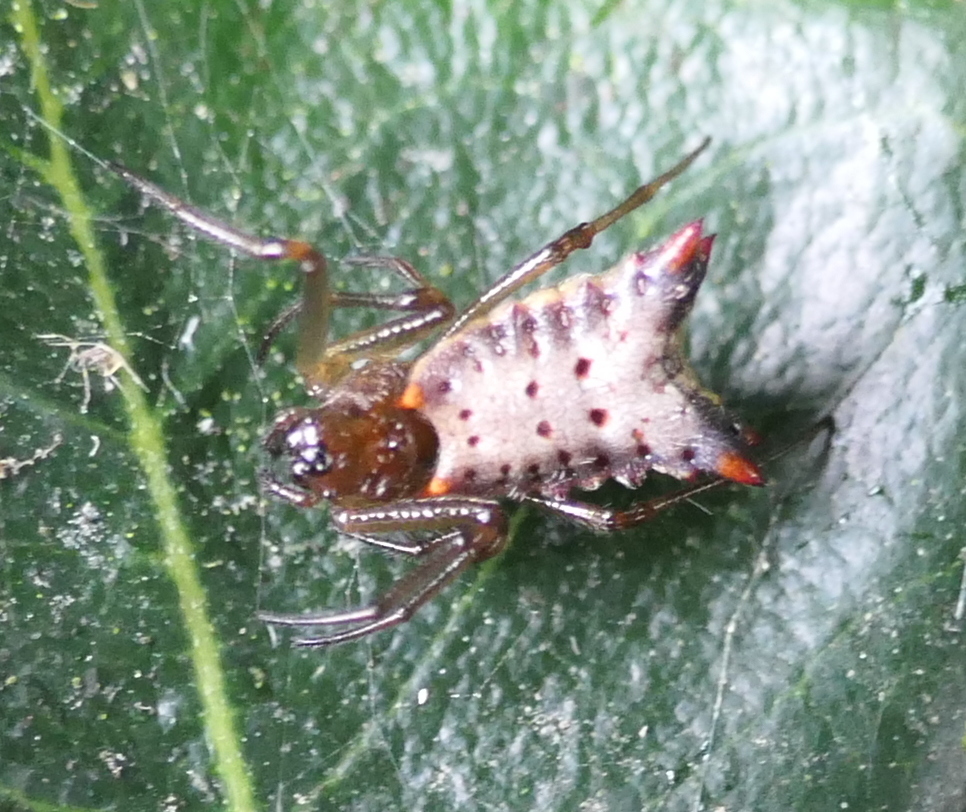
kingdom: Animalia
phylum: Arthropoda
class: Arachnida
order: Araneae
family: Araneidae
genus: Micrathena
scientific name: Micrathena plana
